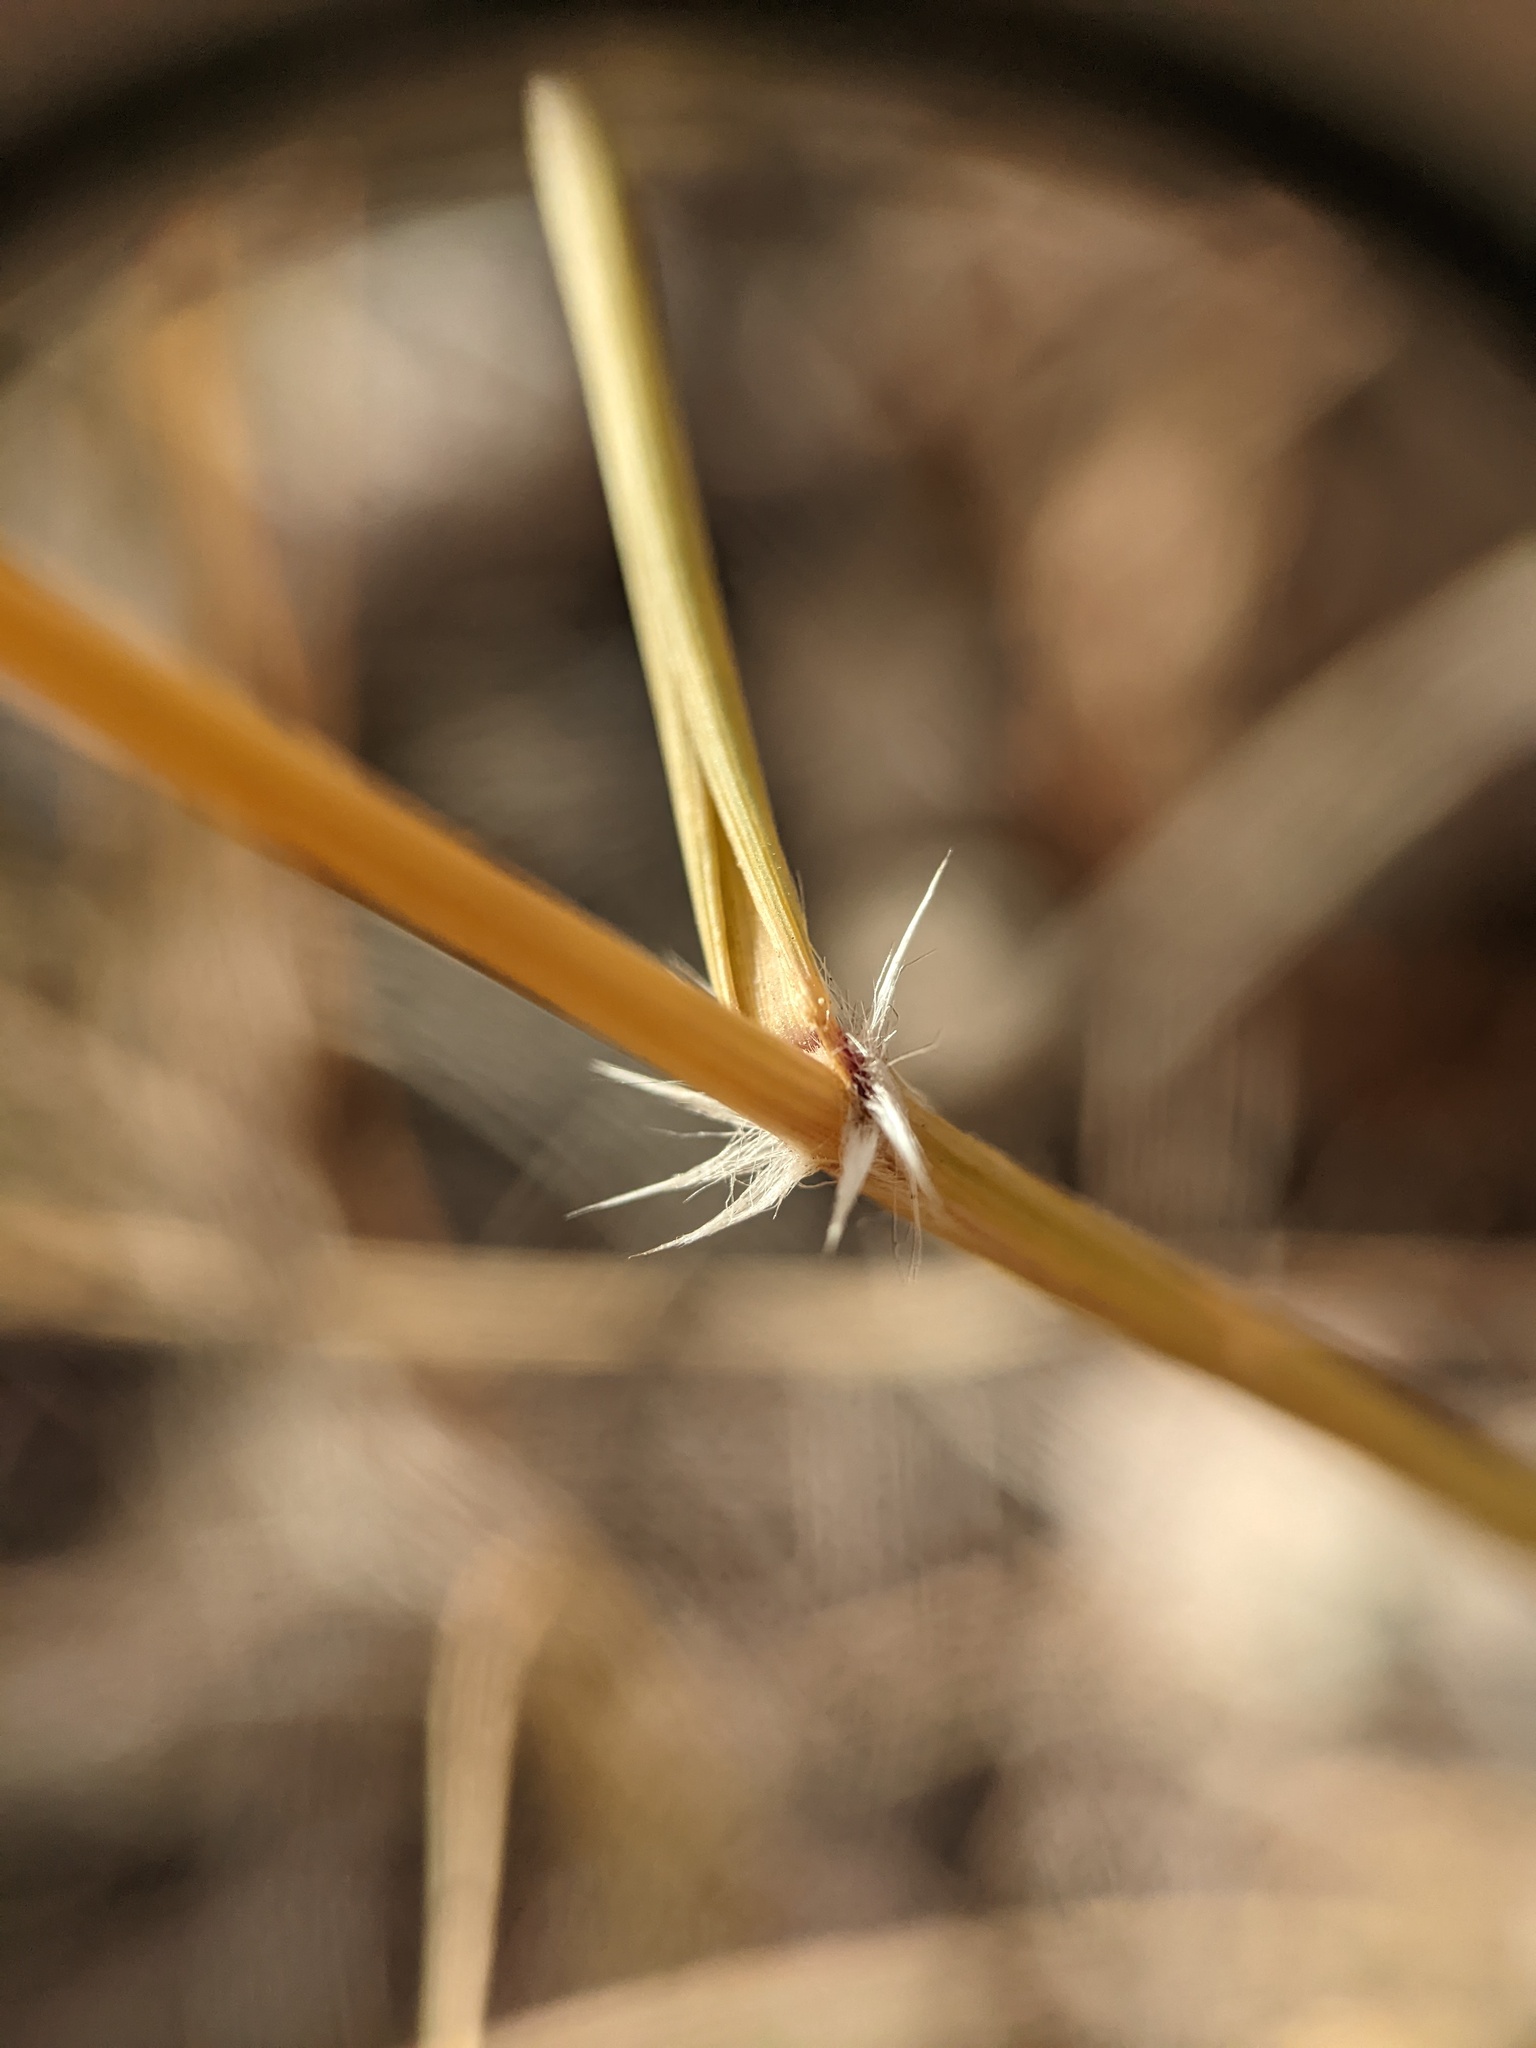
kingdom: Plantae
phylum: Tracheophyta
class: Liliopsida
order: Poales
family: Poaceae
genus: Sporobolus
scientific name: Sporobolus cryptandrus
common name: Sand dropseed
